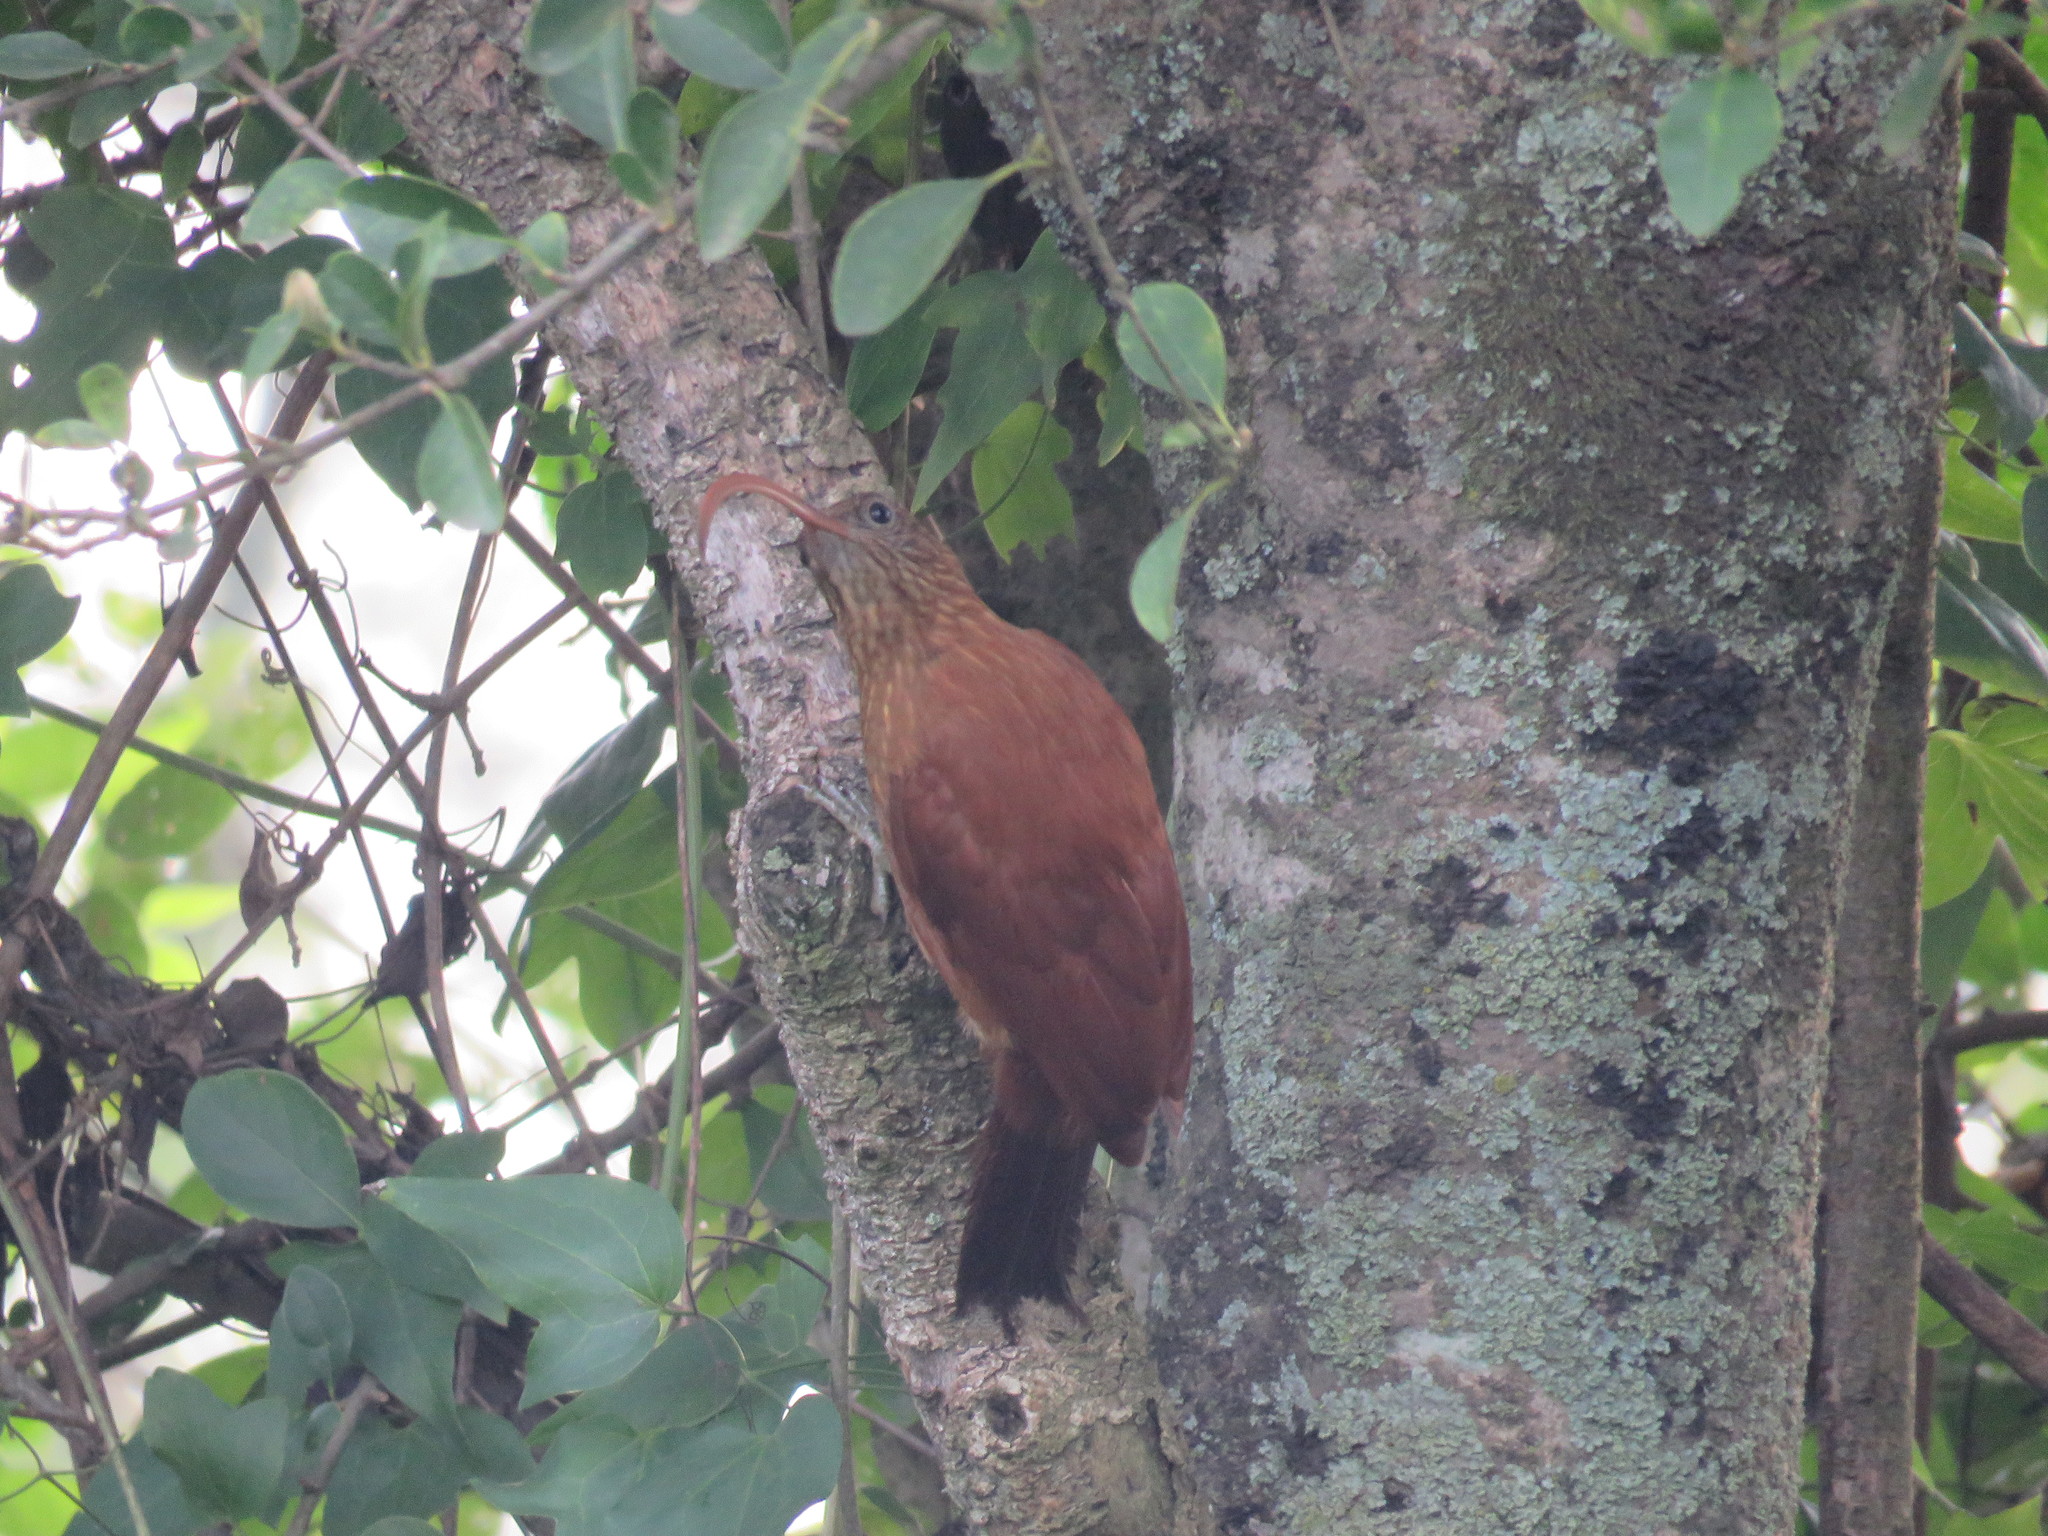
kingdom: Animalia
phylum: Chordata
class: Aves
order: Passeriformes
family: Furnariidae
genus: Campylorhamphus
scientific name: Campylorhamphus trochilirostris
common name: Red-billed scythebill
